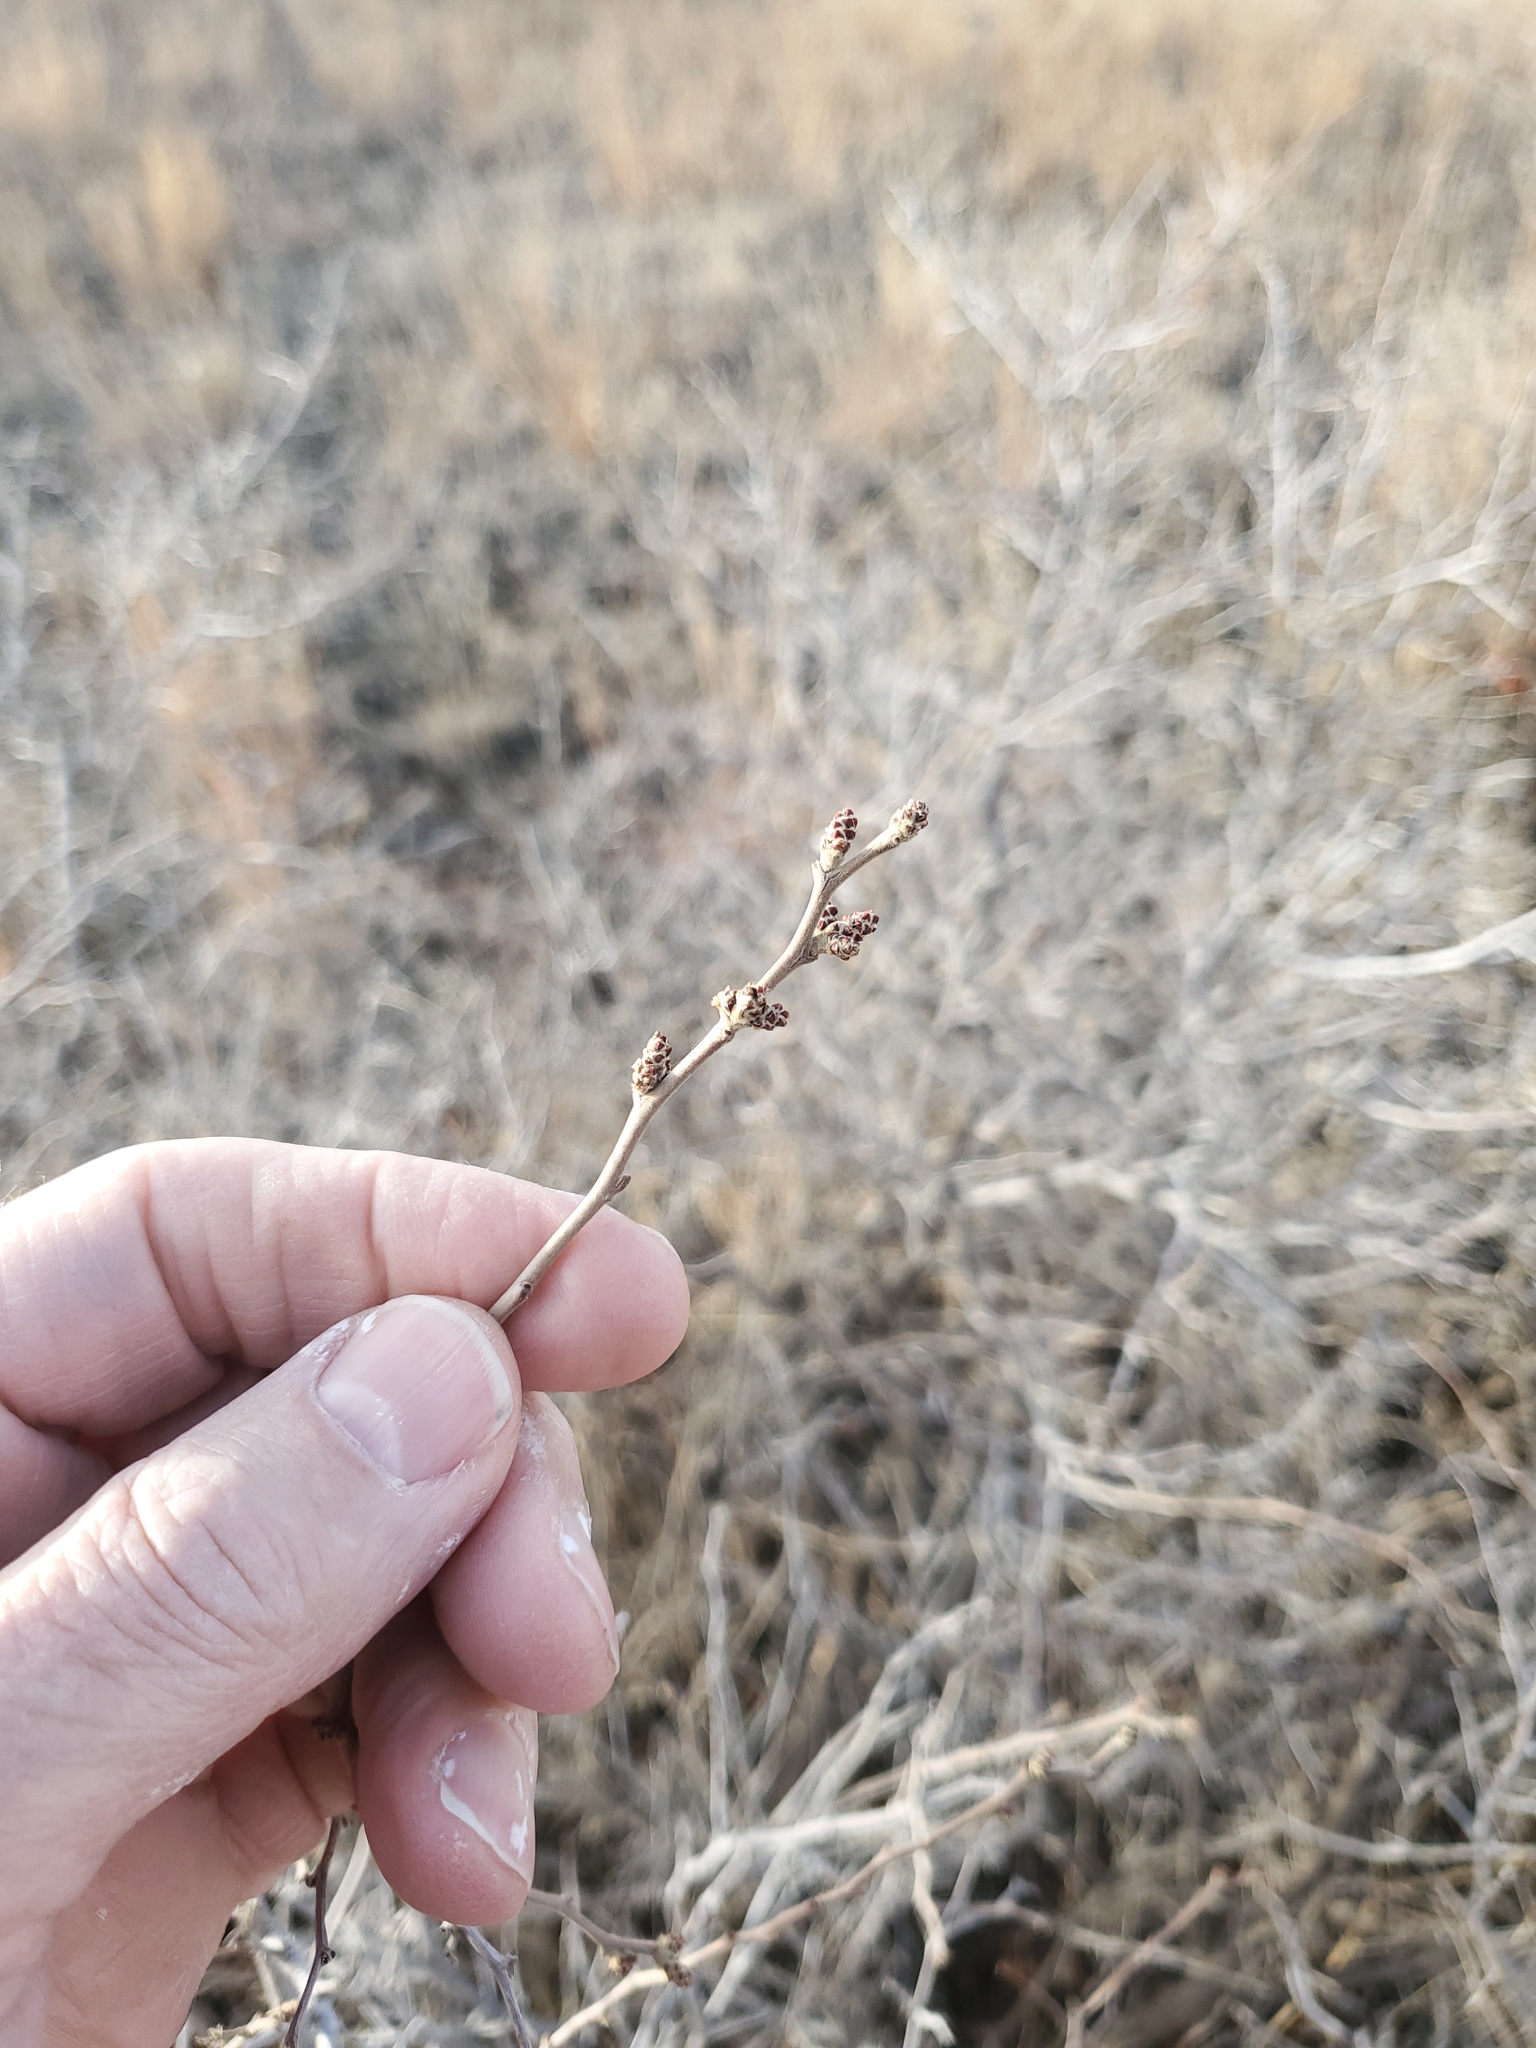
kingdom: Plantae
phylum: Tracheophyta
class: Magnoliopsida
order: Sapindales
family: Anacardiaceae
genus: Rhus
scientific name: Rhus aromatica
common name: Aromatic sumac
